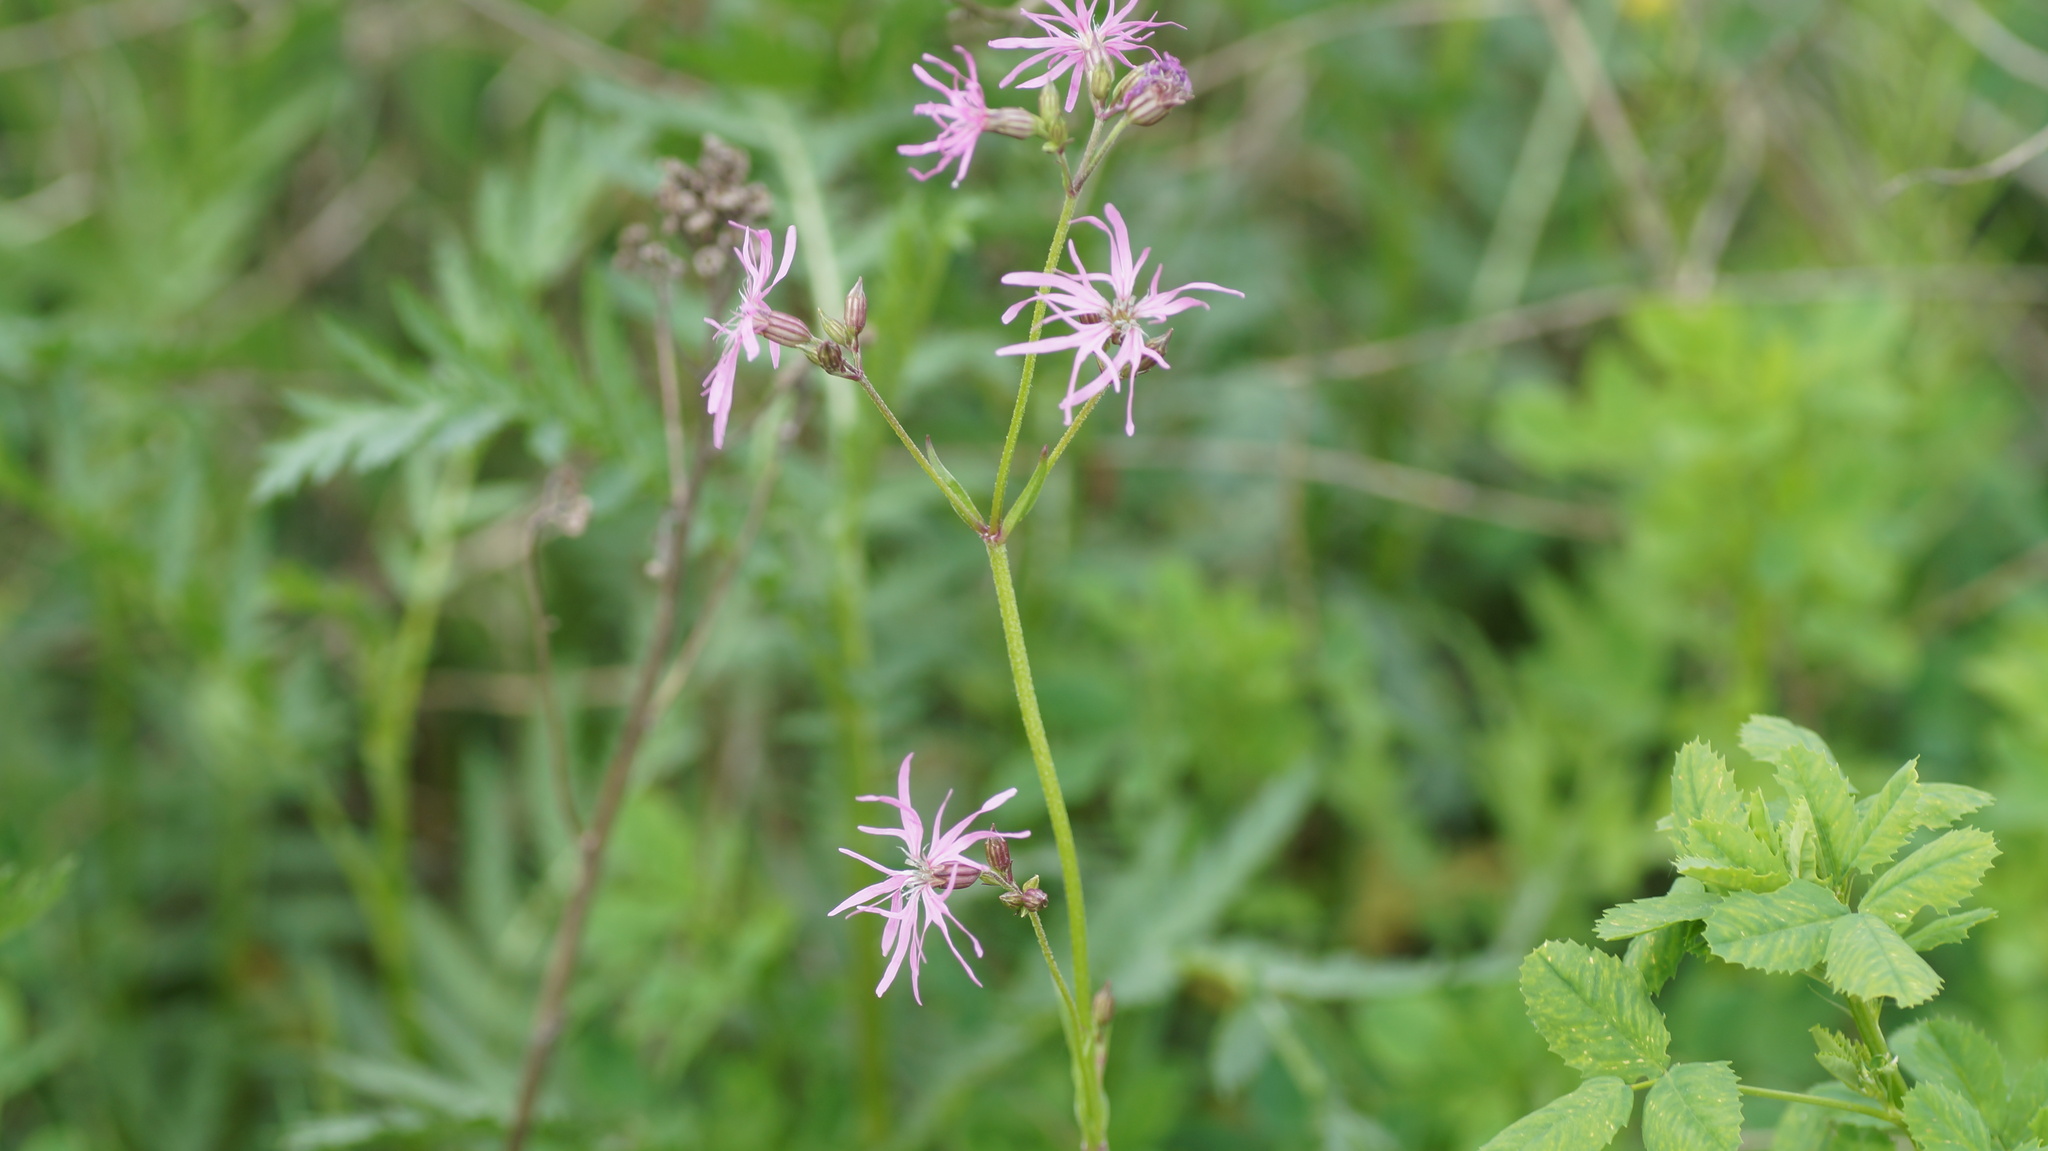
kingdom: Plantae
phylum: Tracheophyta
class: Magnoliopsida
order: Caryophyllales
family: Caryophyllaceae
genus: Silene
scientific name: Silene flos-cuculi
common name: Ragged-robin
